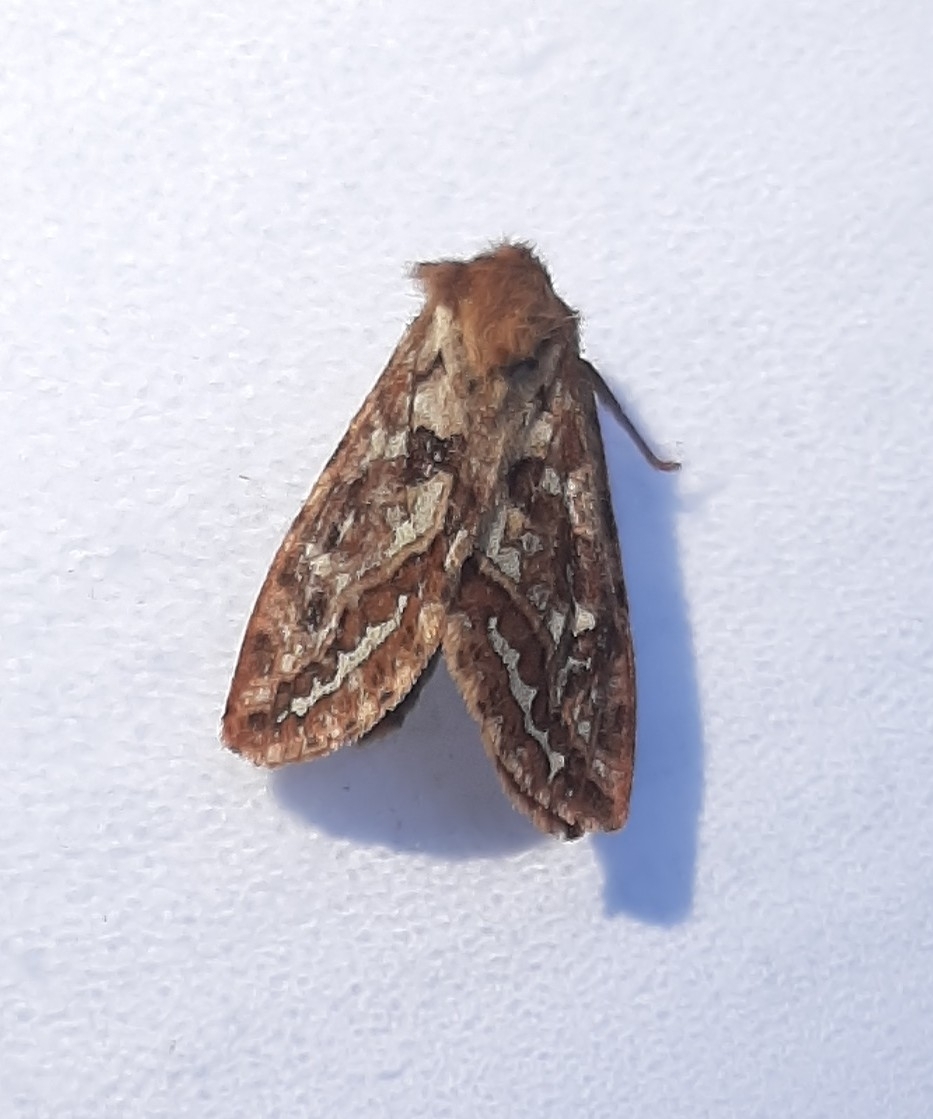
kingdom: Animalia
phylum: Arthropoda
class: Insecta
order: Lepidoptera
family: Hepialidae
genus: Korscheltellus
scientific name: Korscheltellus fusconebulosus
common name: Map-winged swift
